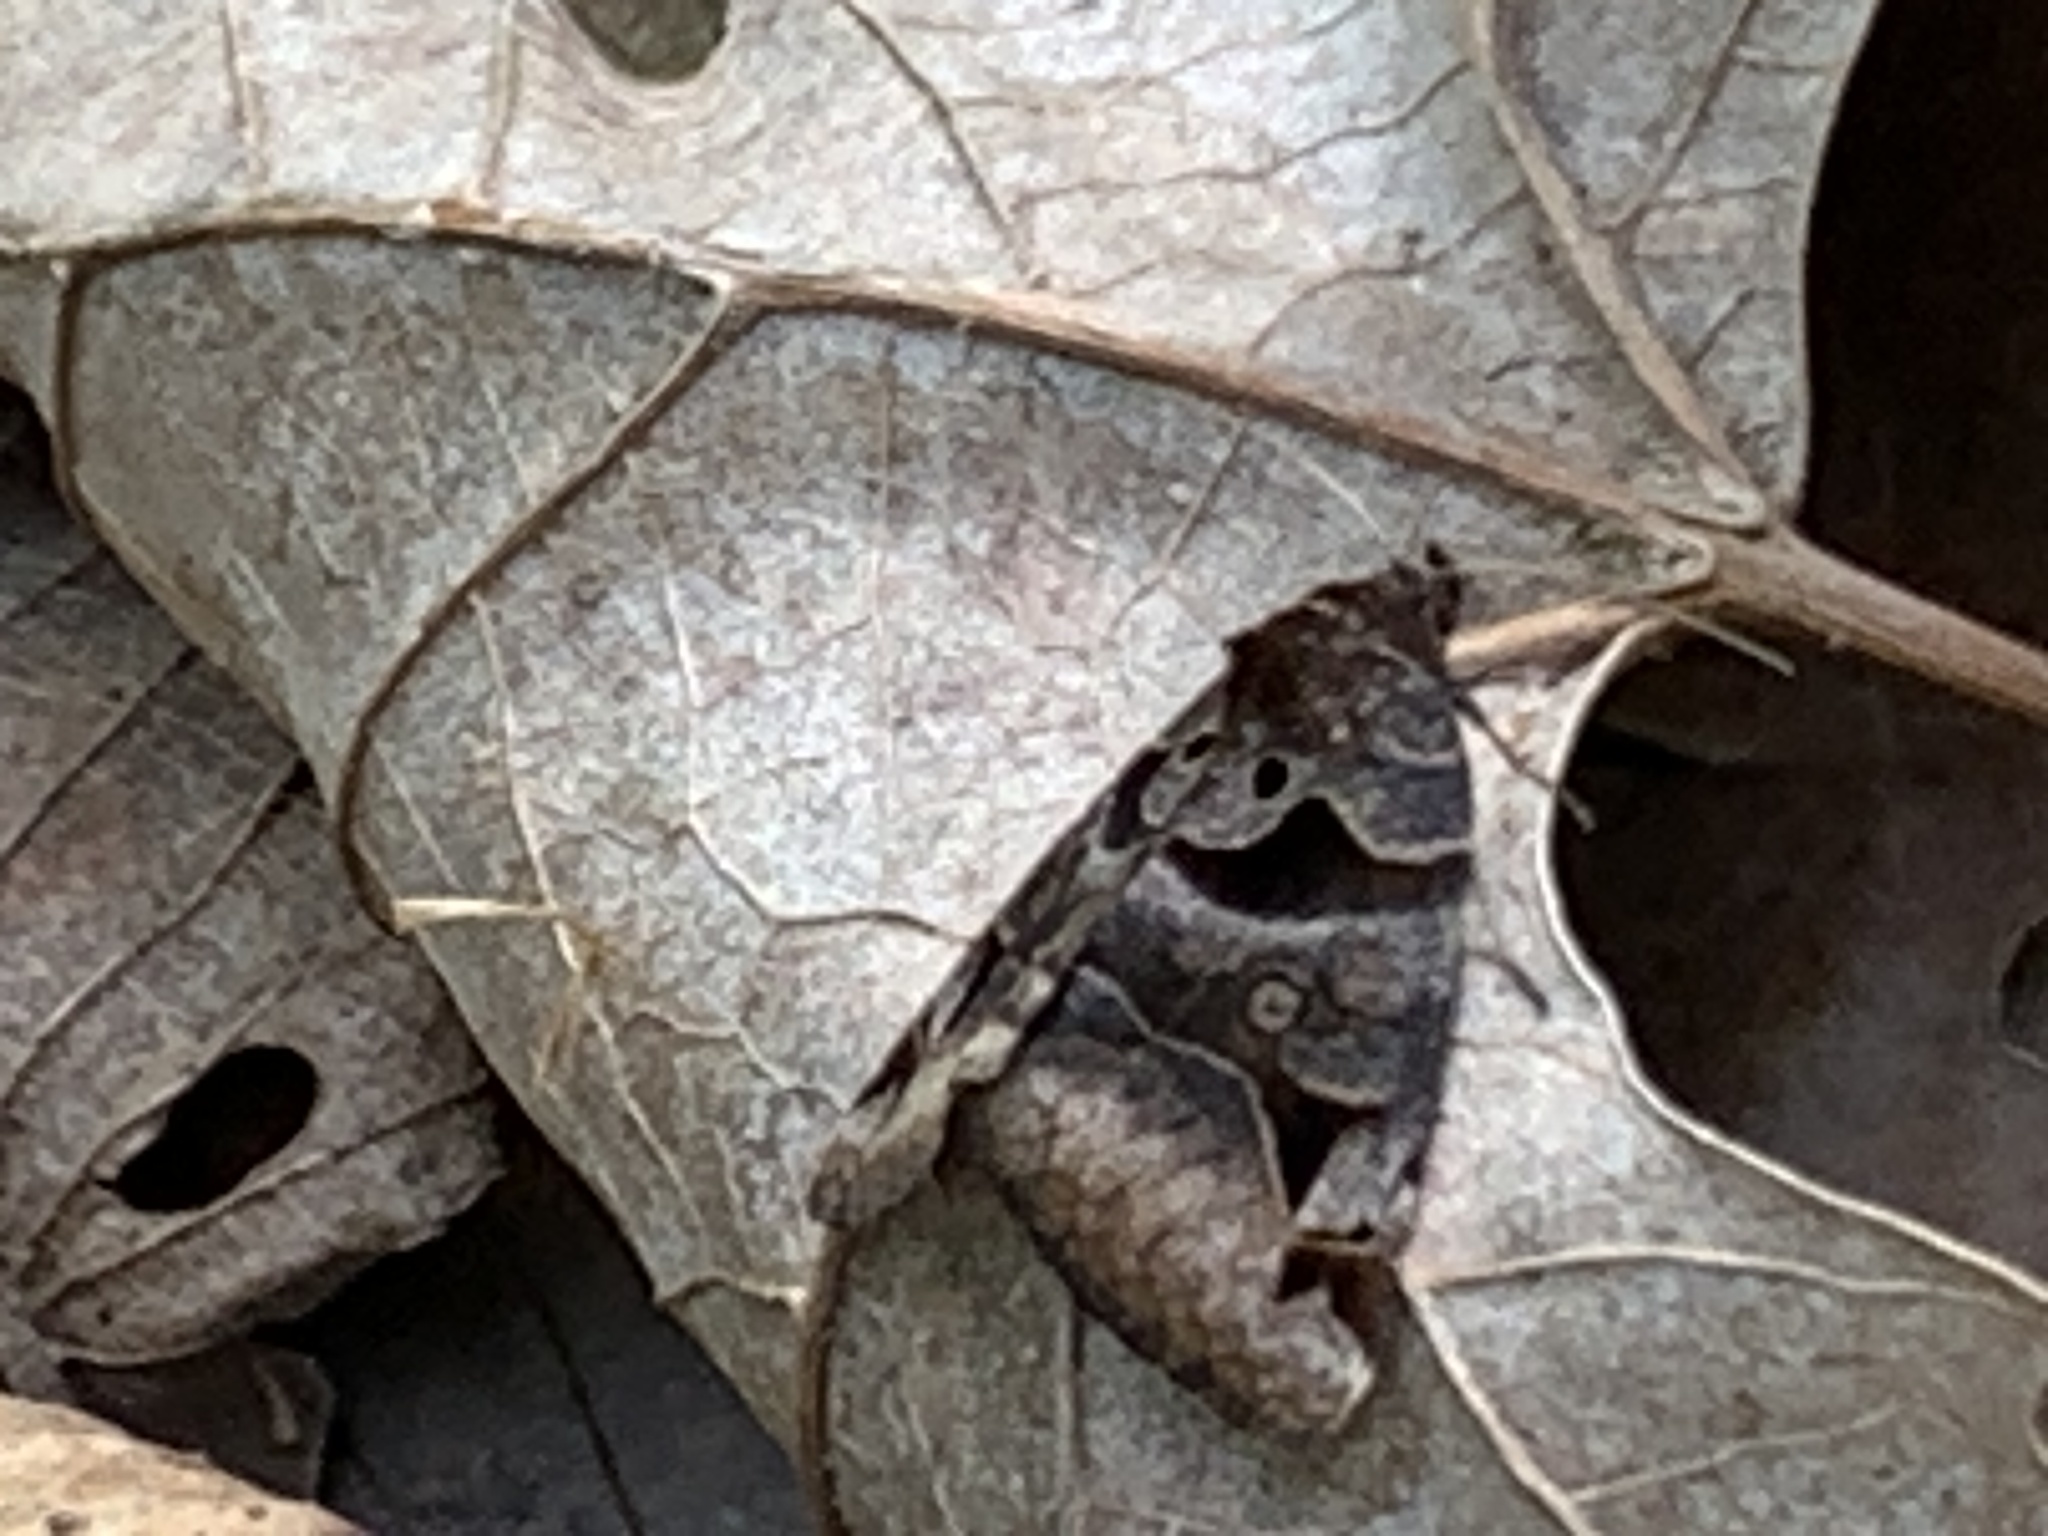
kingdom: Animalia
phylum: Arthropoda
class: Insecta
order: Lepidoptera
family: Erebidae
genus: Euclidia
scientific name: Euclidia cuspidea
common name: Toothed somberwing
